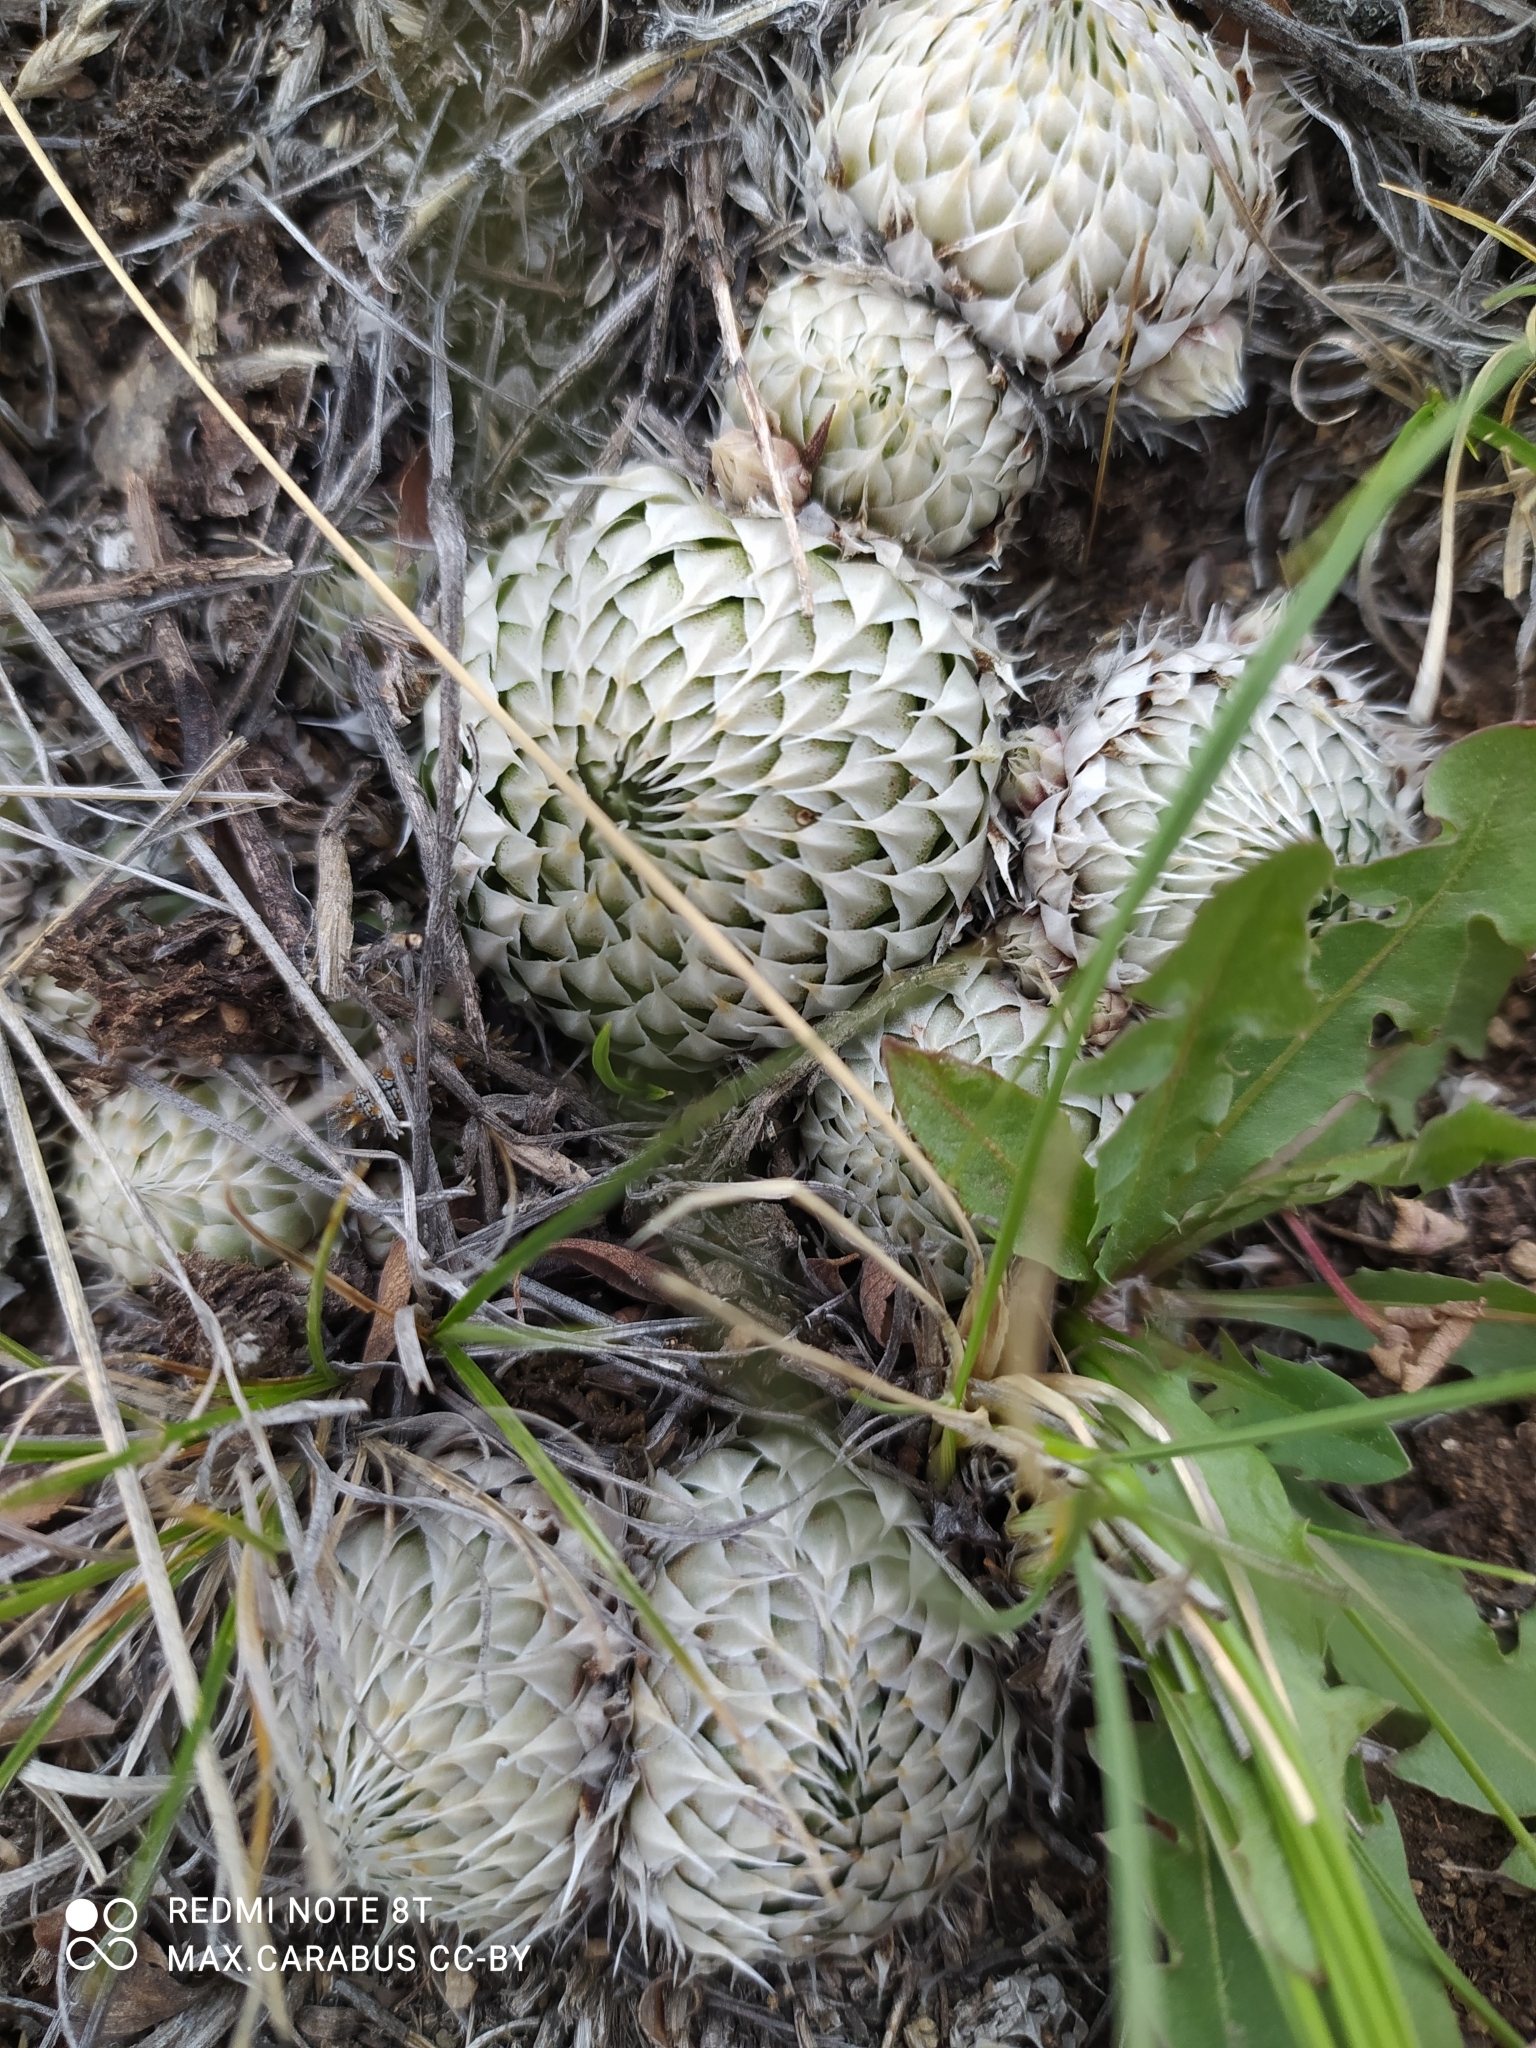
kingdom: Plantae
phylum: Tracheophyta
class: Magnoliopsida
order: Saxifragales
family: Crassulaceae
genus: Orostachys
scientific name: Orostachys spinosa
